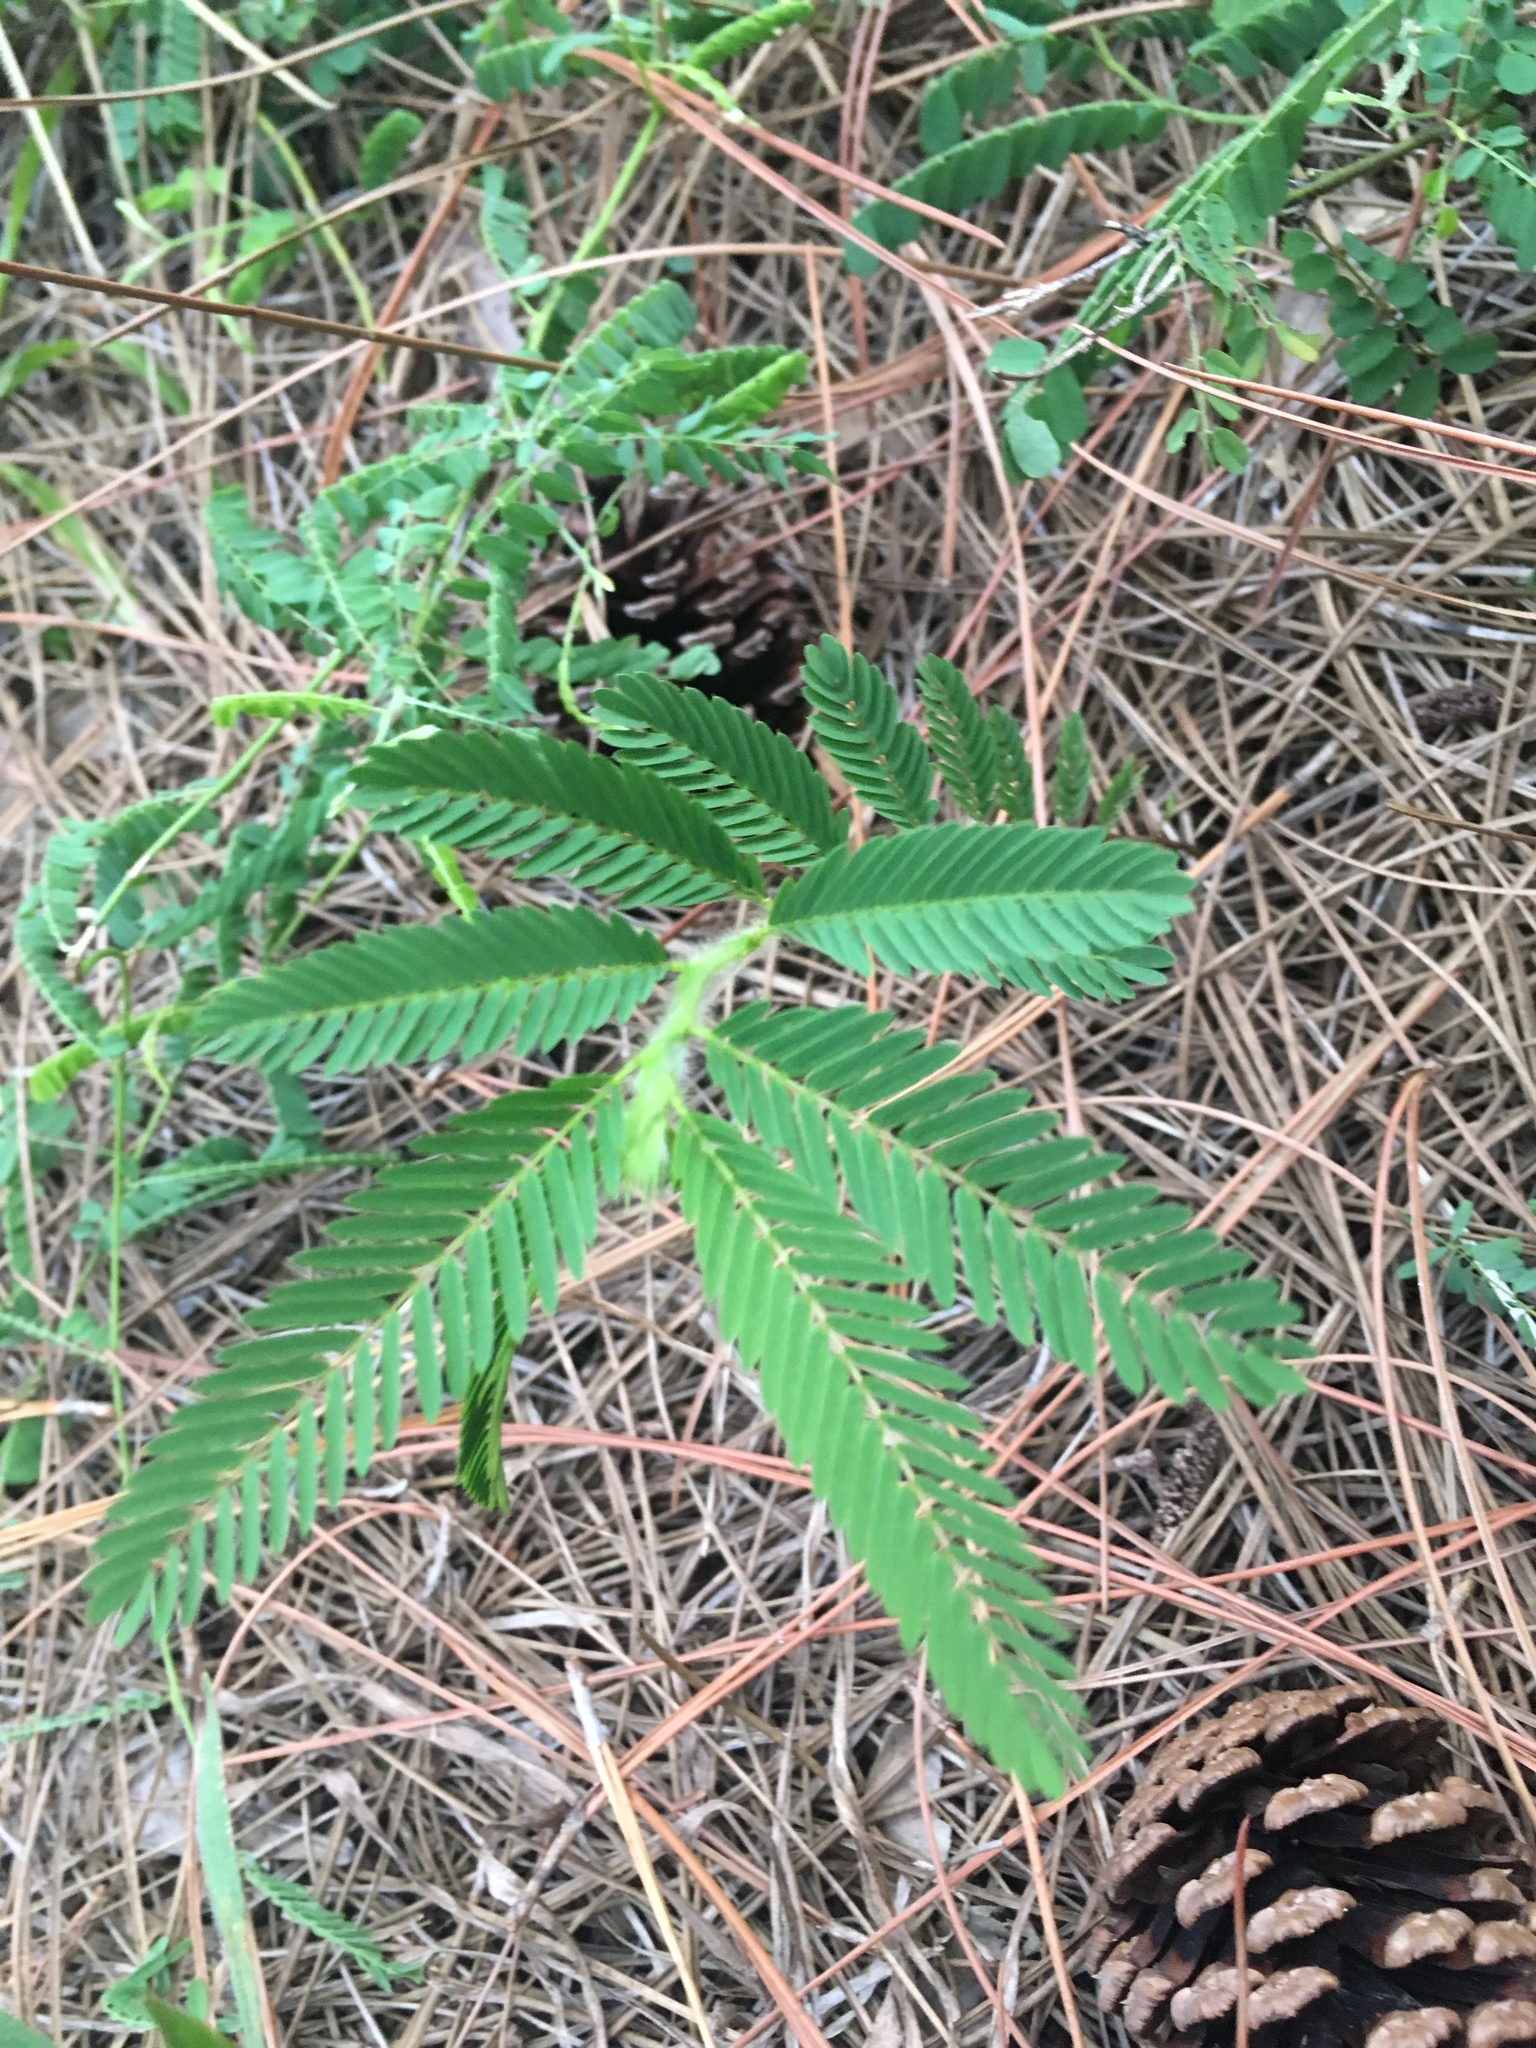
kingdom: Plantae
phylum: Tracheophyta
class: Magnoliopsida
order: Fabales
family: Fabaceae
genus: Chamaecrista
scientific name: Chamaecrista nictitans
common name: Sensitive cassia
